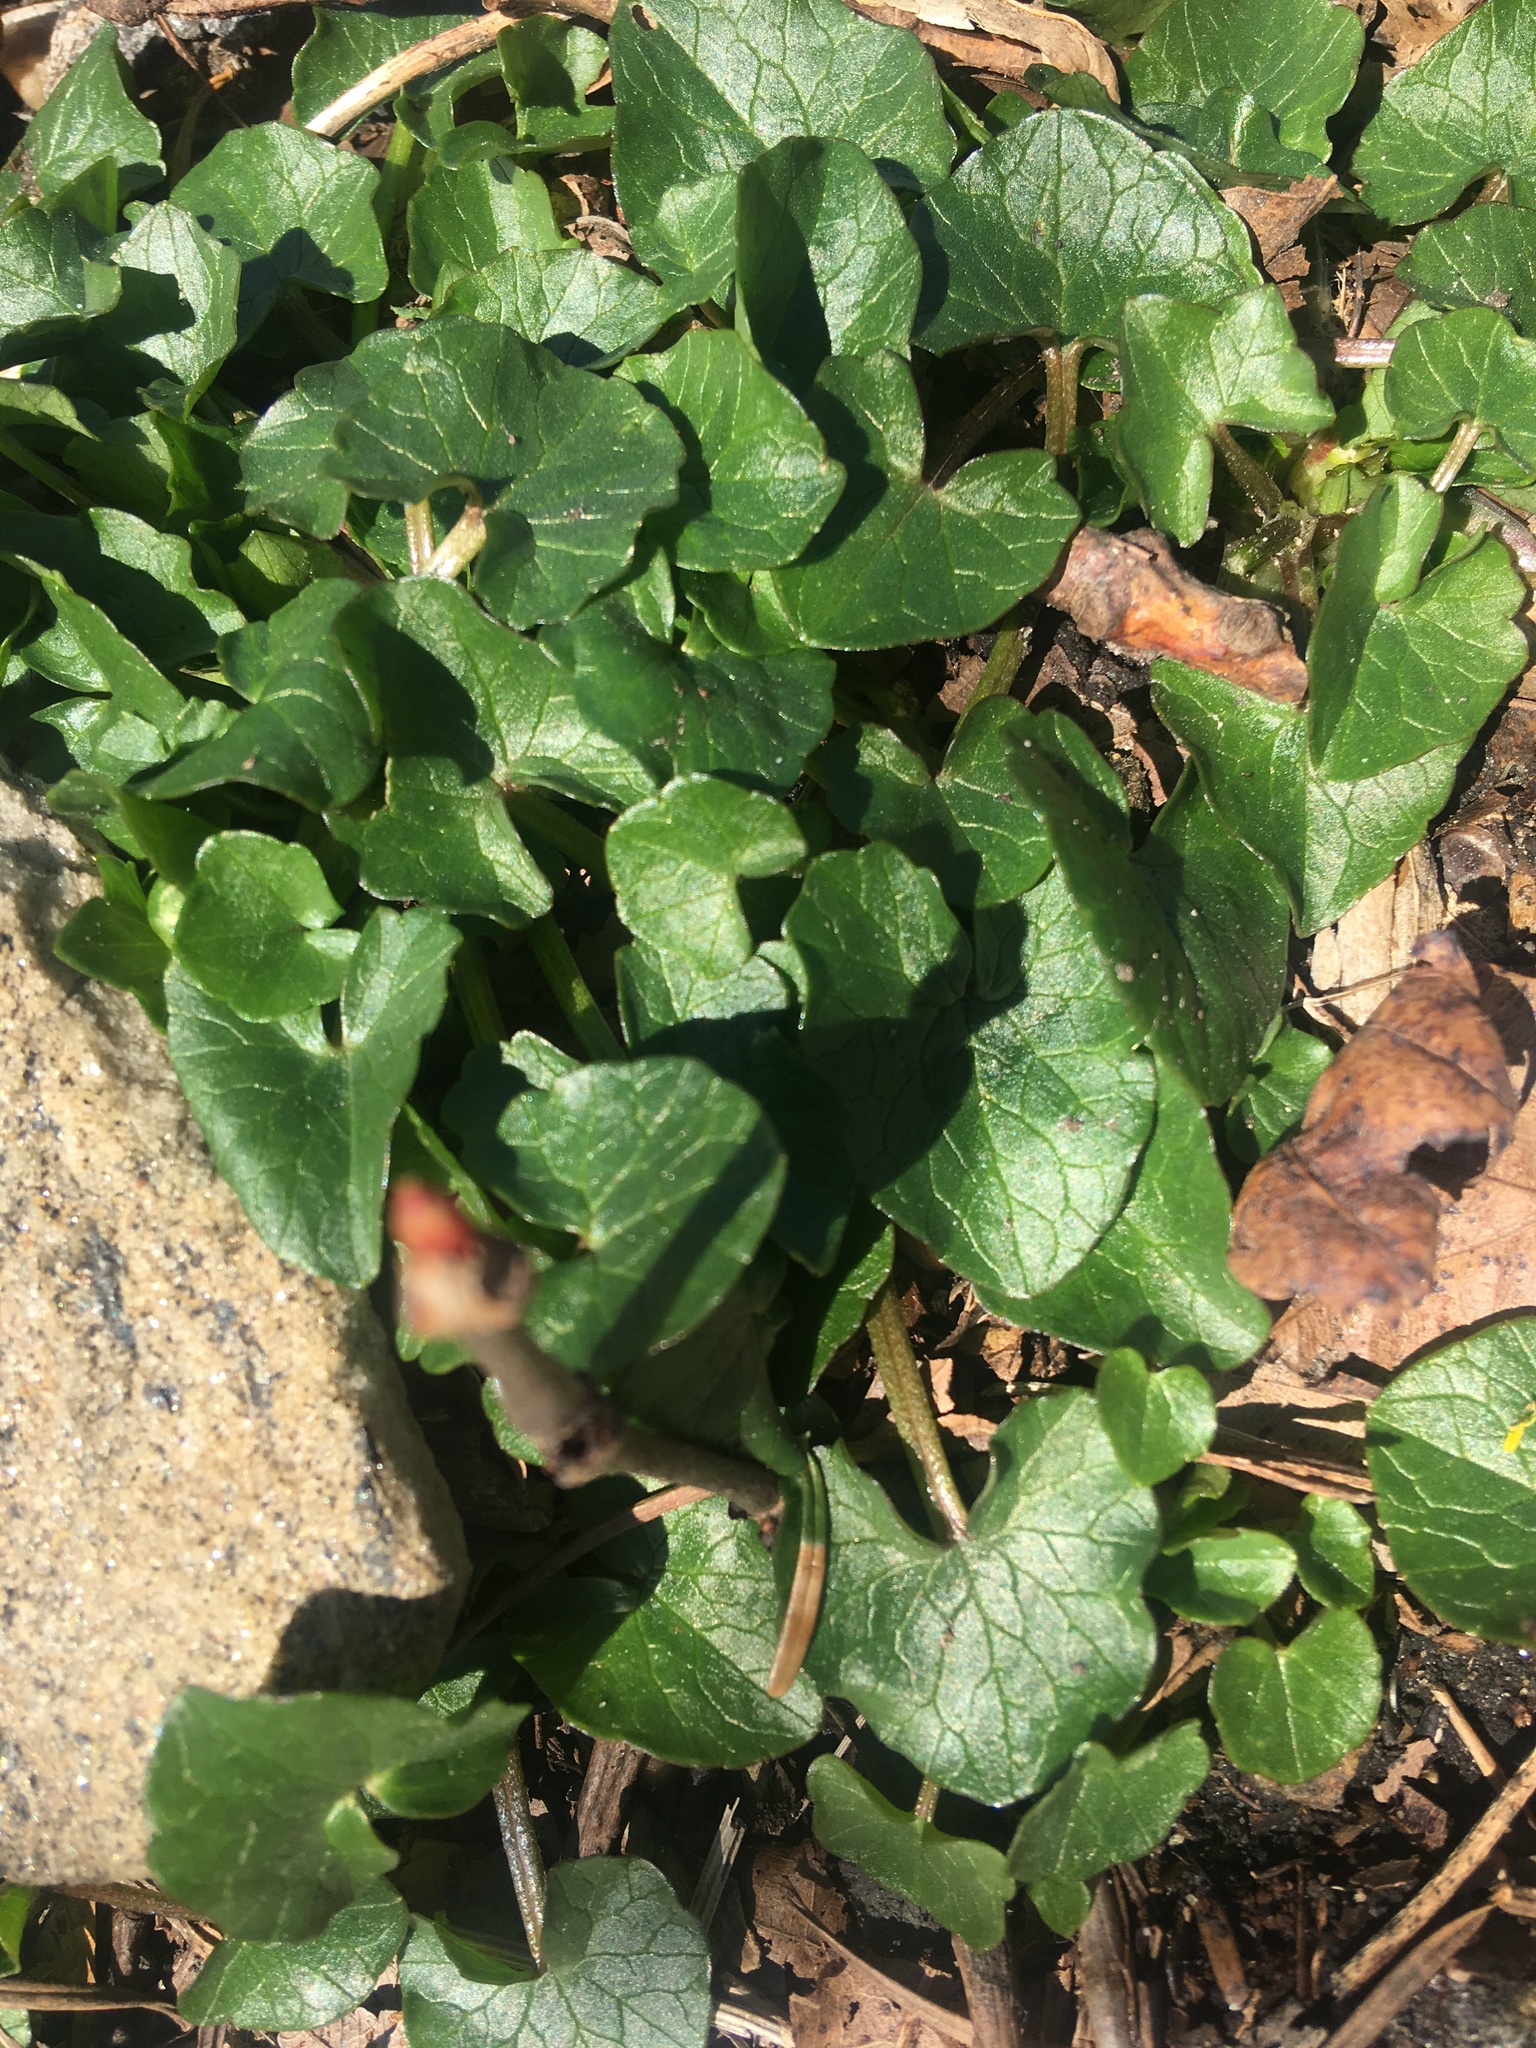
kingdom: Plantae
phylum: Tracheophyta
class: Magnoliopsida
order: Ranunculales
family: Ranunculaceae
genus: Ficaria
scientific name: Ficaria verna
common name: Lesser celandine
